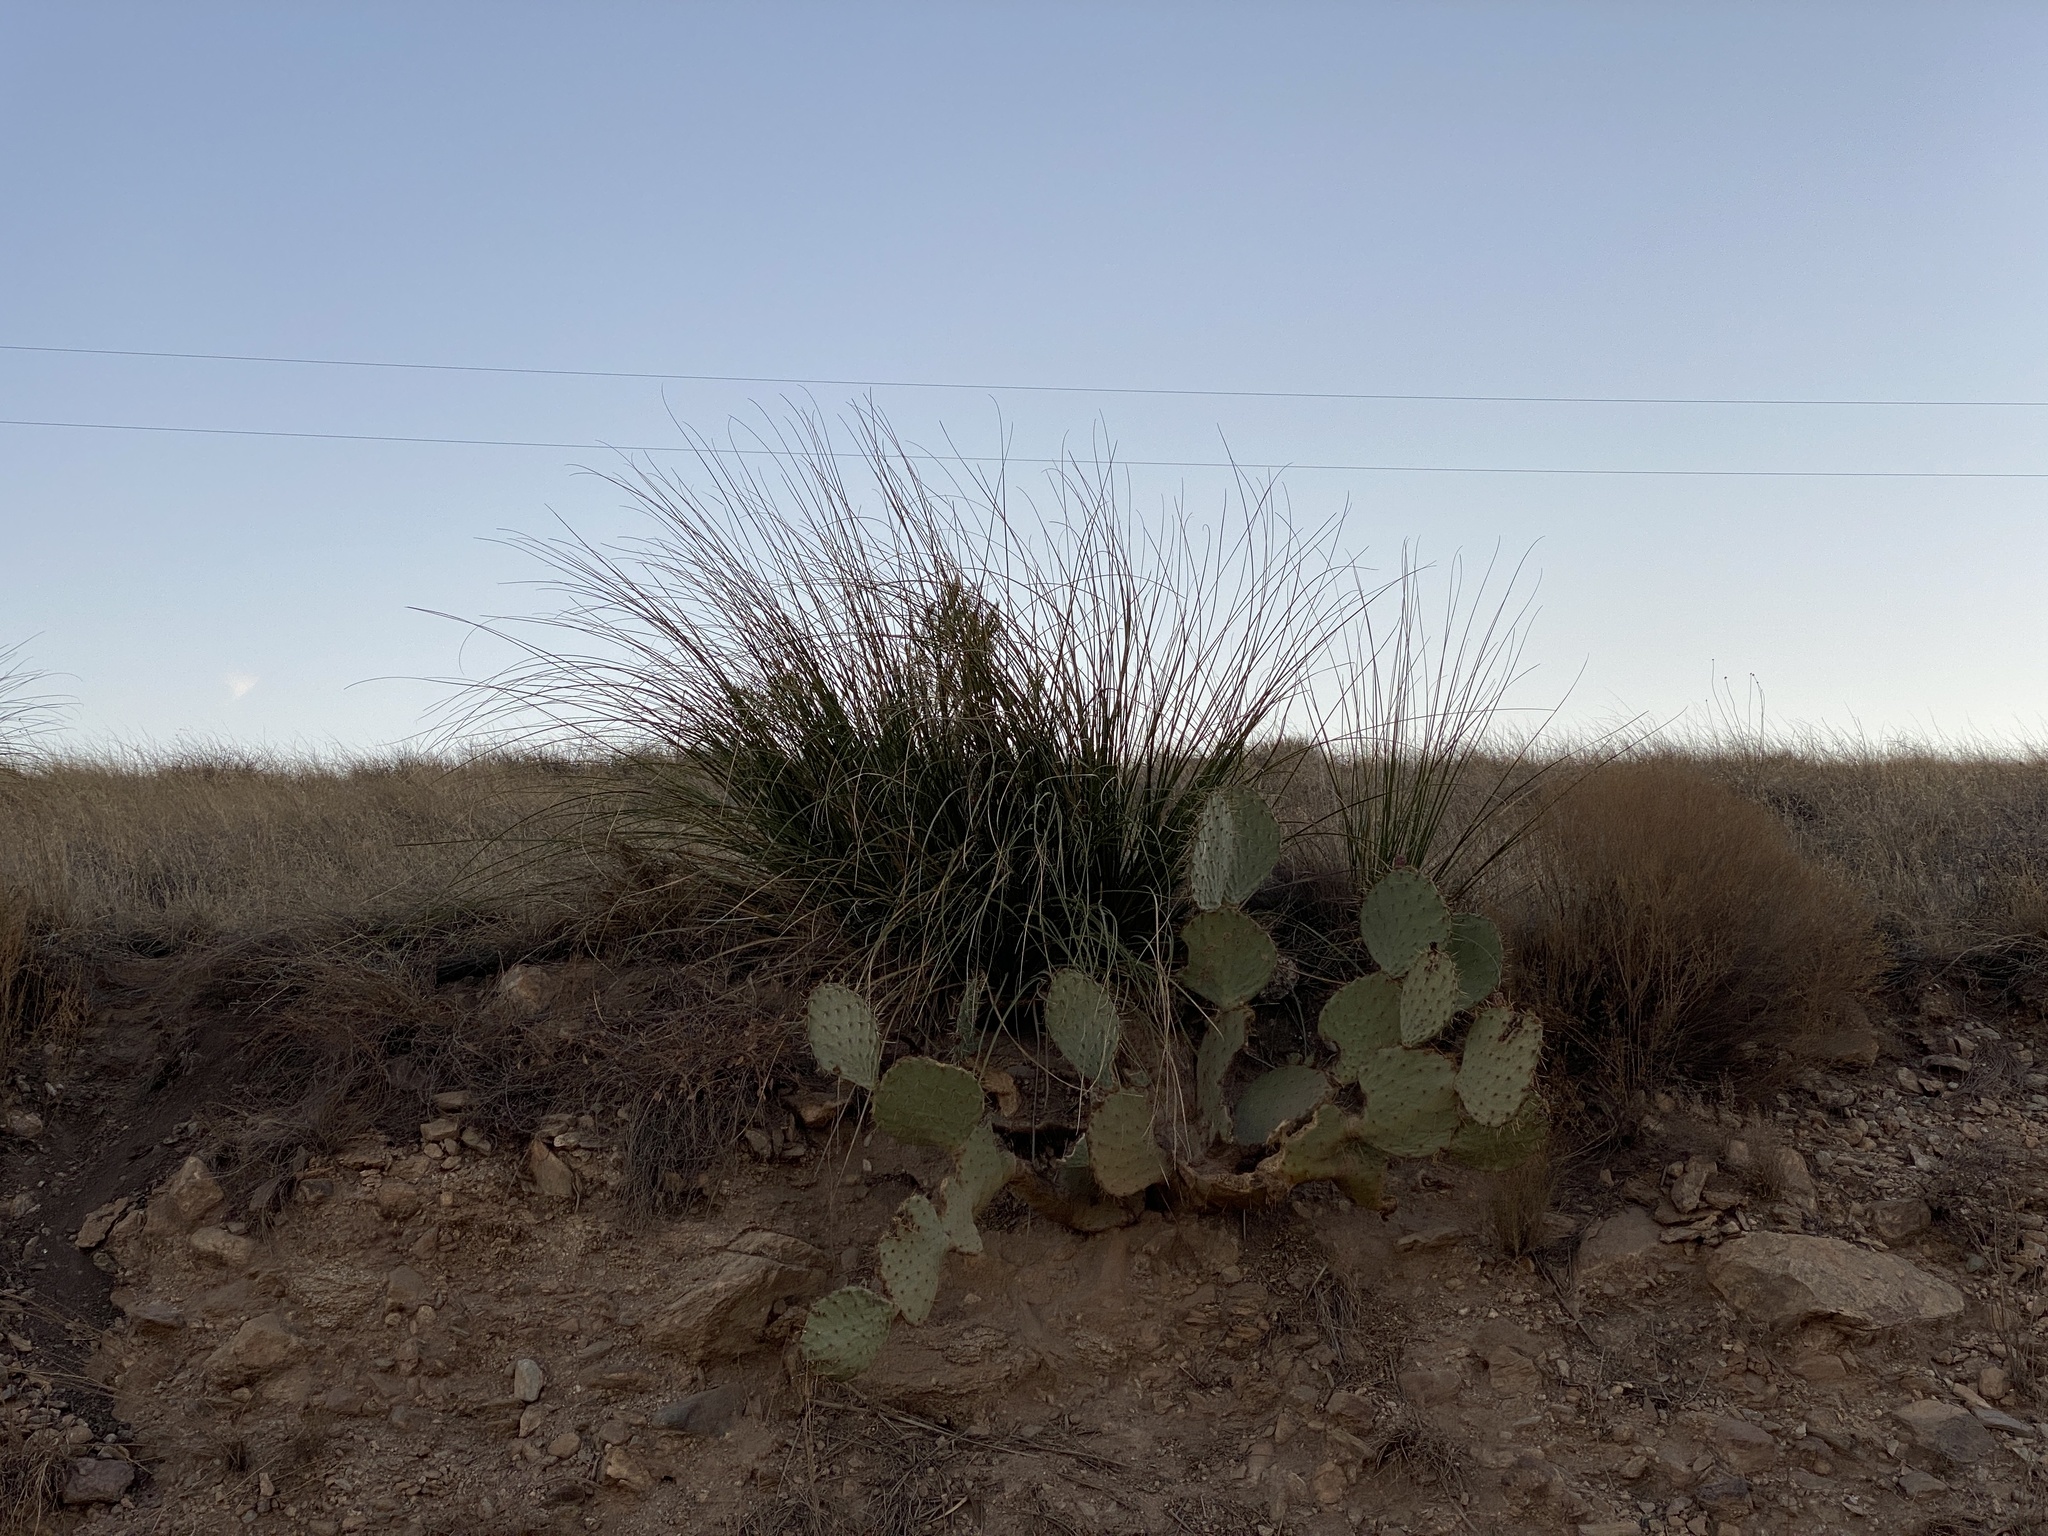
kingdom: Plantae
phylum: Tracheophyta
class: Liliopsida
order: Asparagales
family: Asparagaceae
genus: Nolina
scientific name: Nolina microcarpa
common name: Bear-grass
